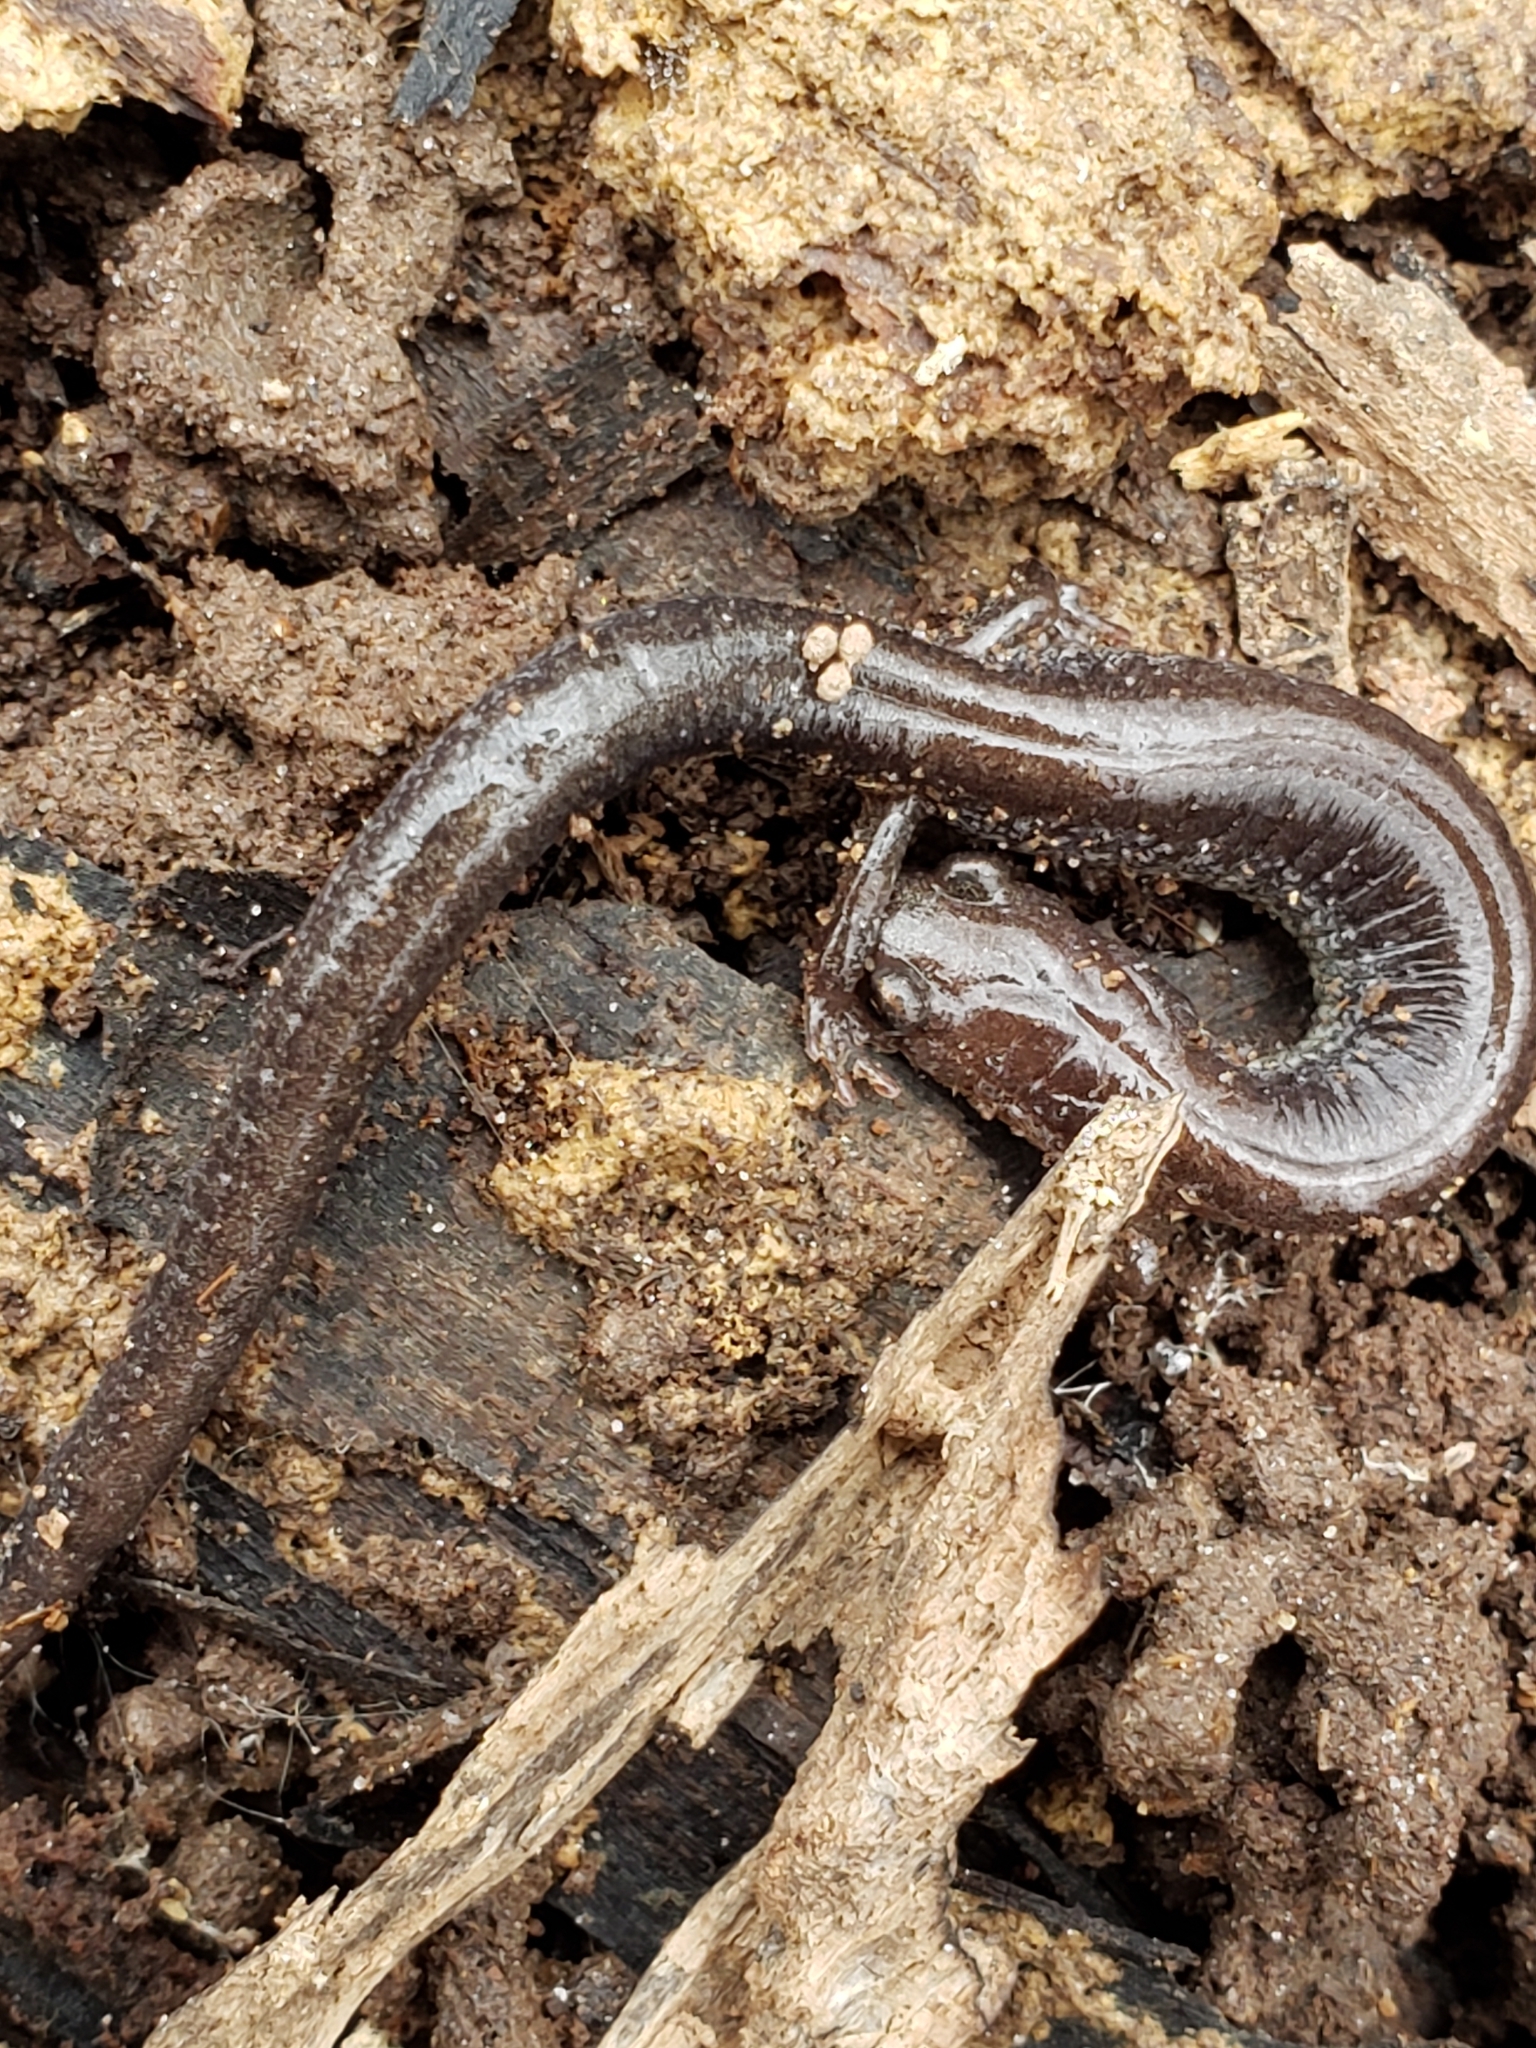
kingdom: Animalia
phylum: Chordata
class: Amphibia
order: Caudata
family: Plethodontidae
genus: Plethodon
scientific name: Plethodon cinereus
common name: Redback salamander
